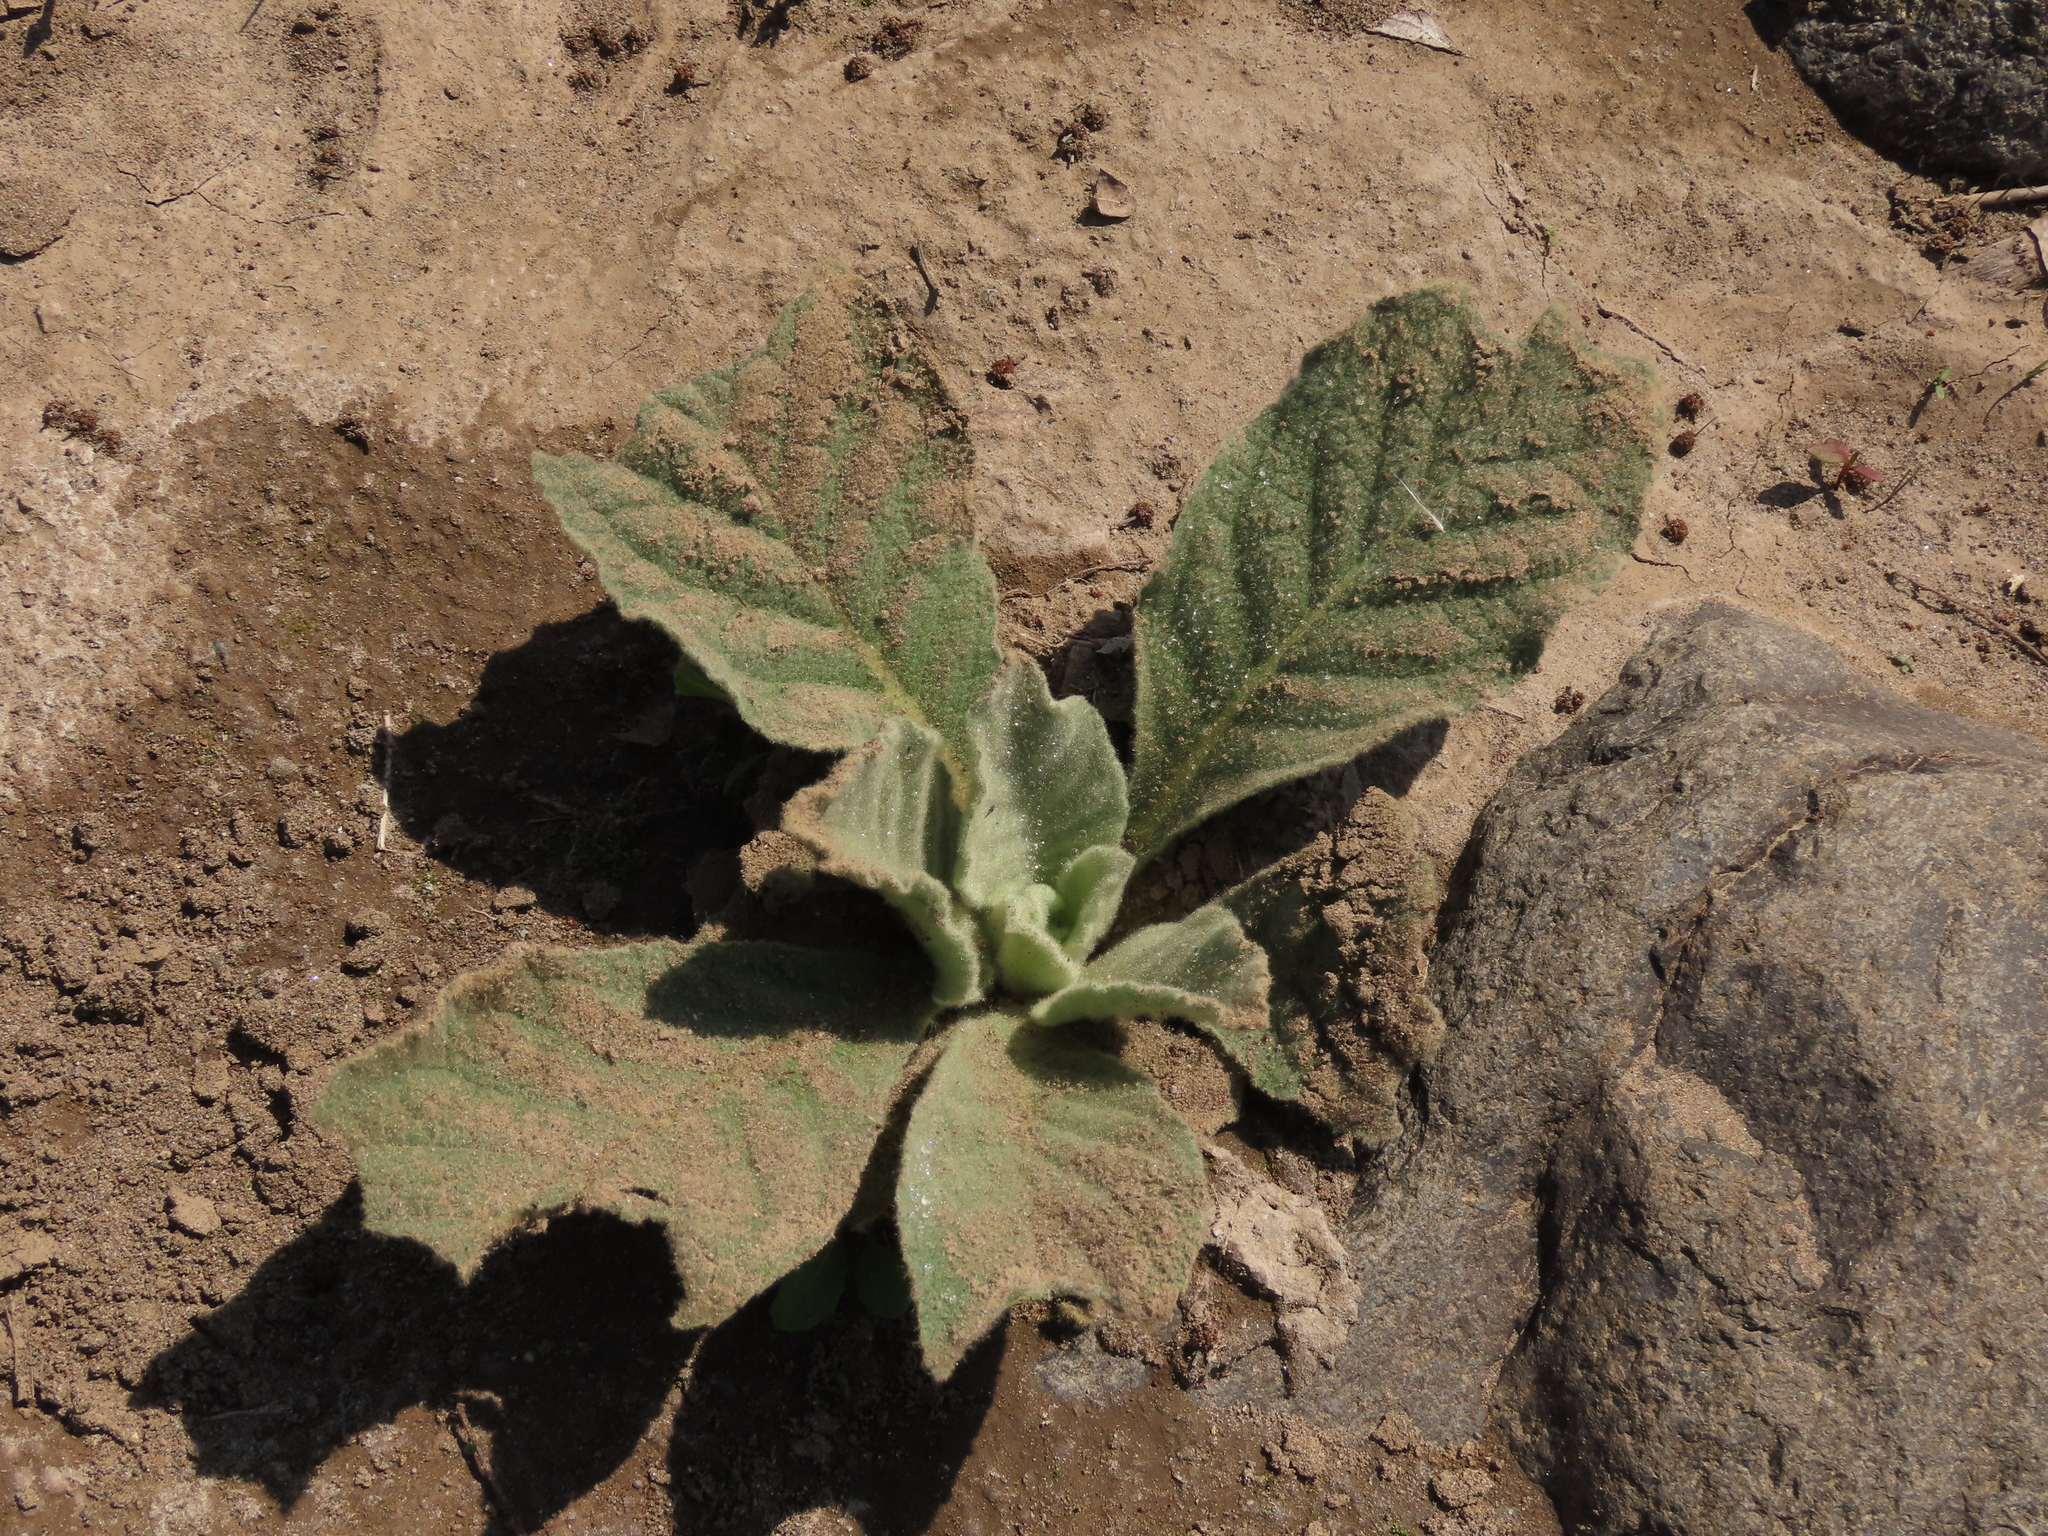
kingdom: Plantae
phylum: Tracheophyta
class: Magnoliopsida
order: Lamiales
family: Scrophulariaceae
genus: Verbascum
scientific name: Verbascum thapsus
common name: Common mullein
